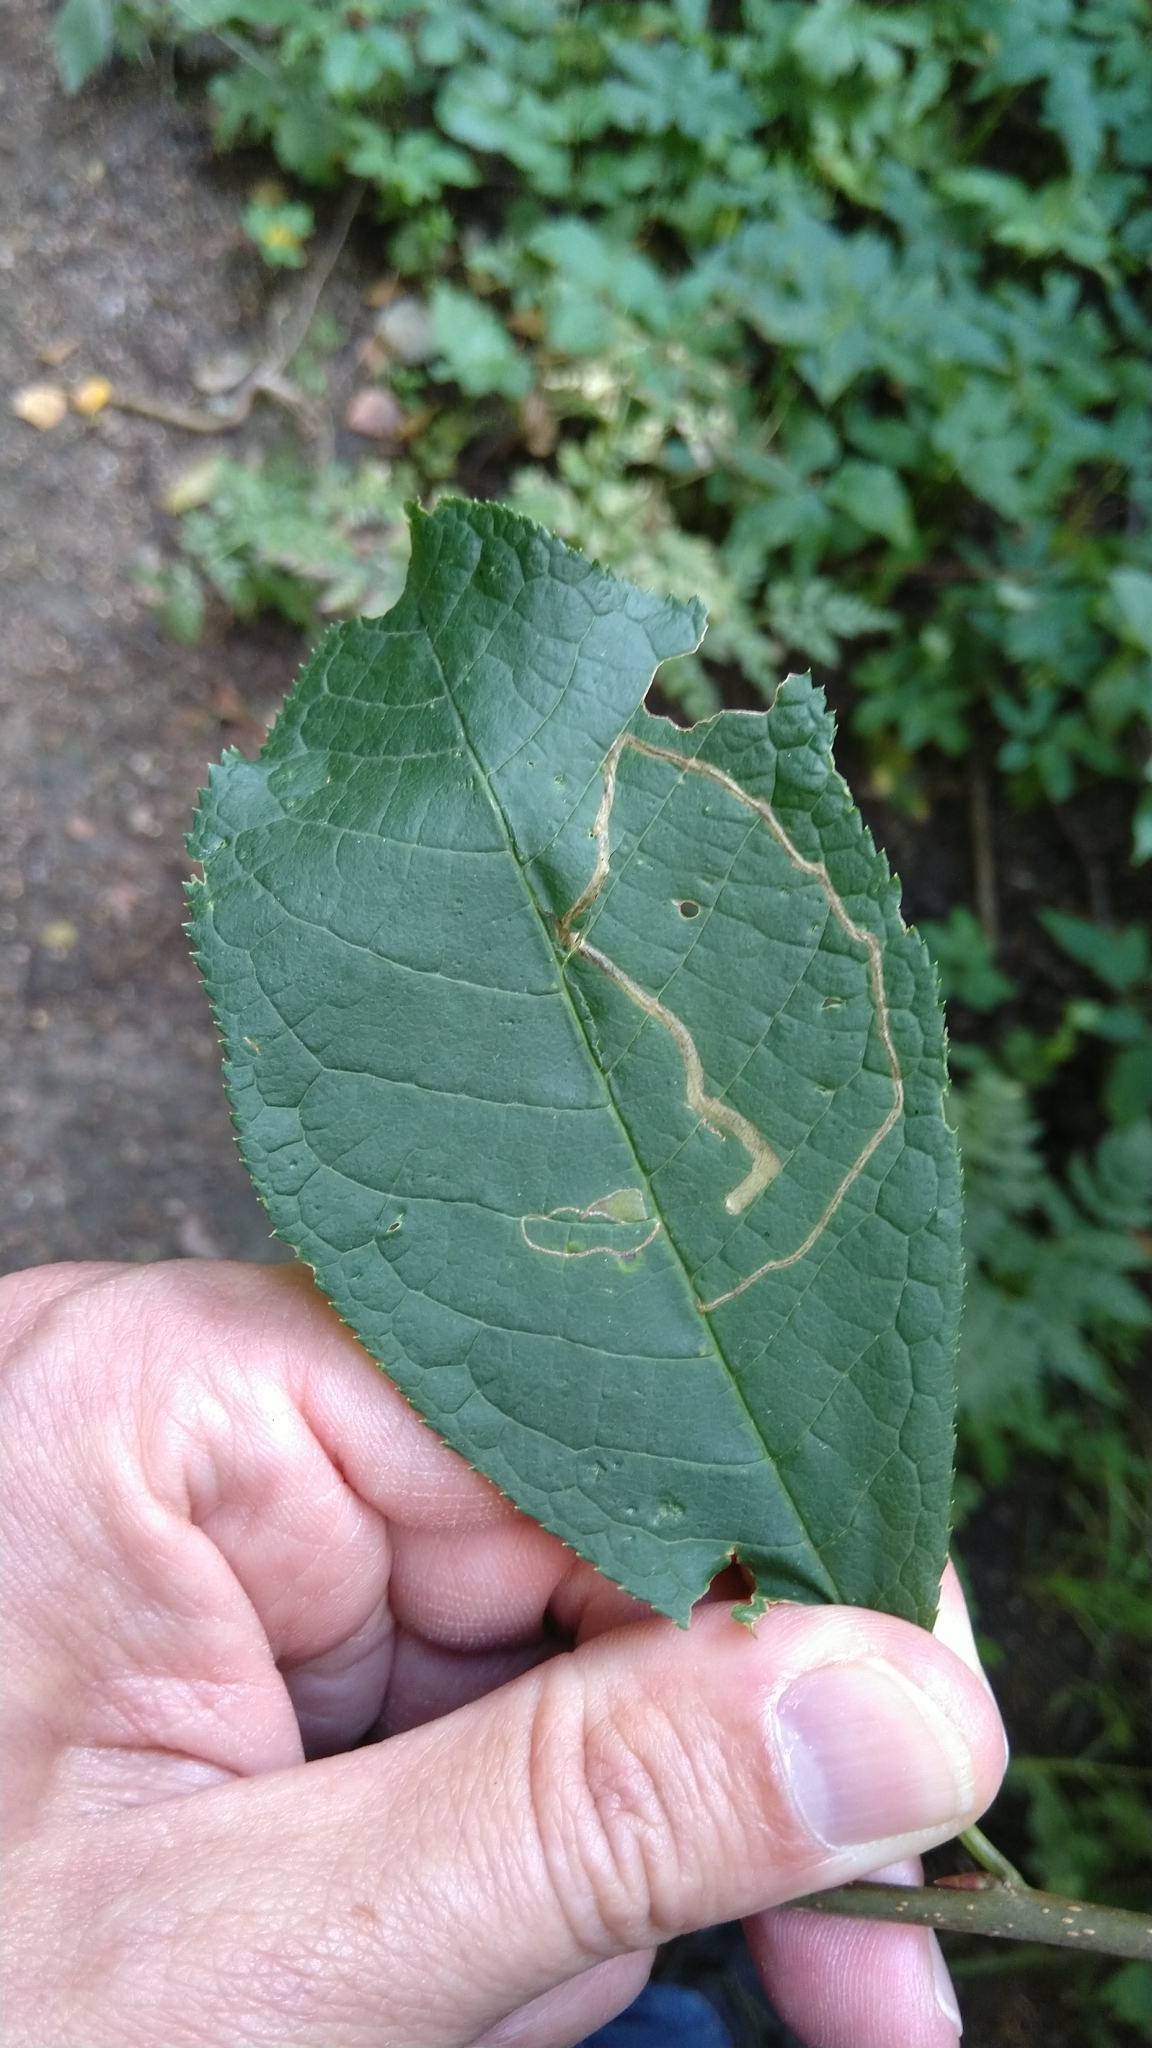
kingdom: Animalia
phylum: Arthropoda
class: Insecta
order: Lepidoptera
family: Lyonetiidae
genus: Lyonetia
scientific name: Lyonetia clerkella
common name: Apple leaf miner
